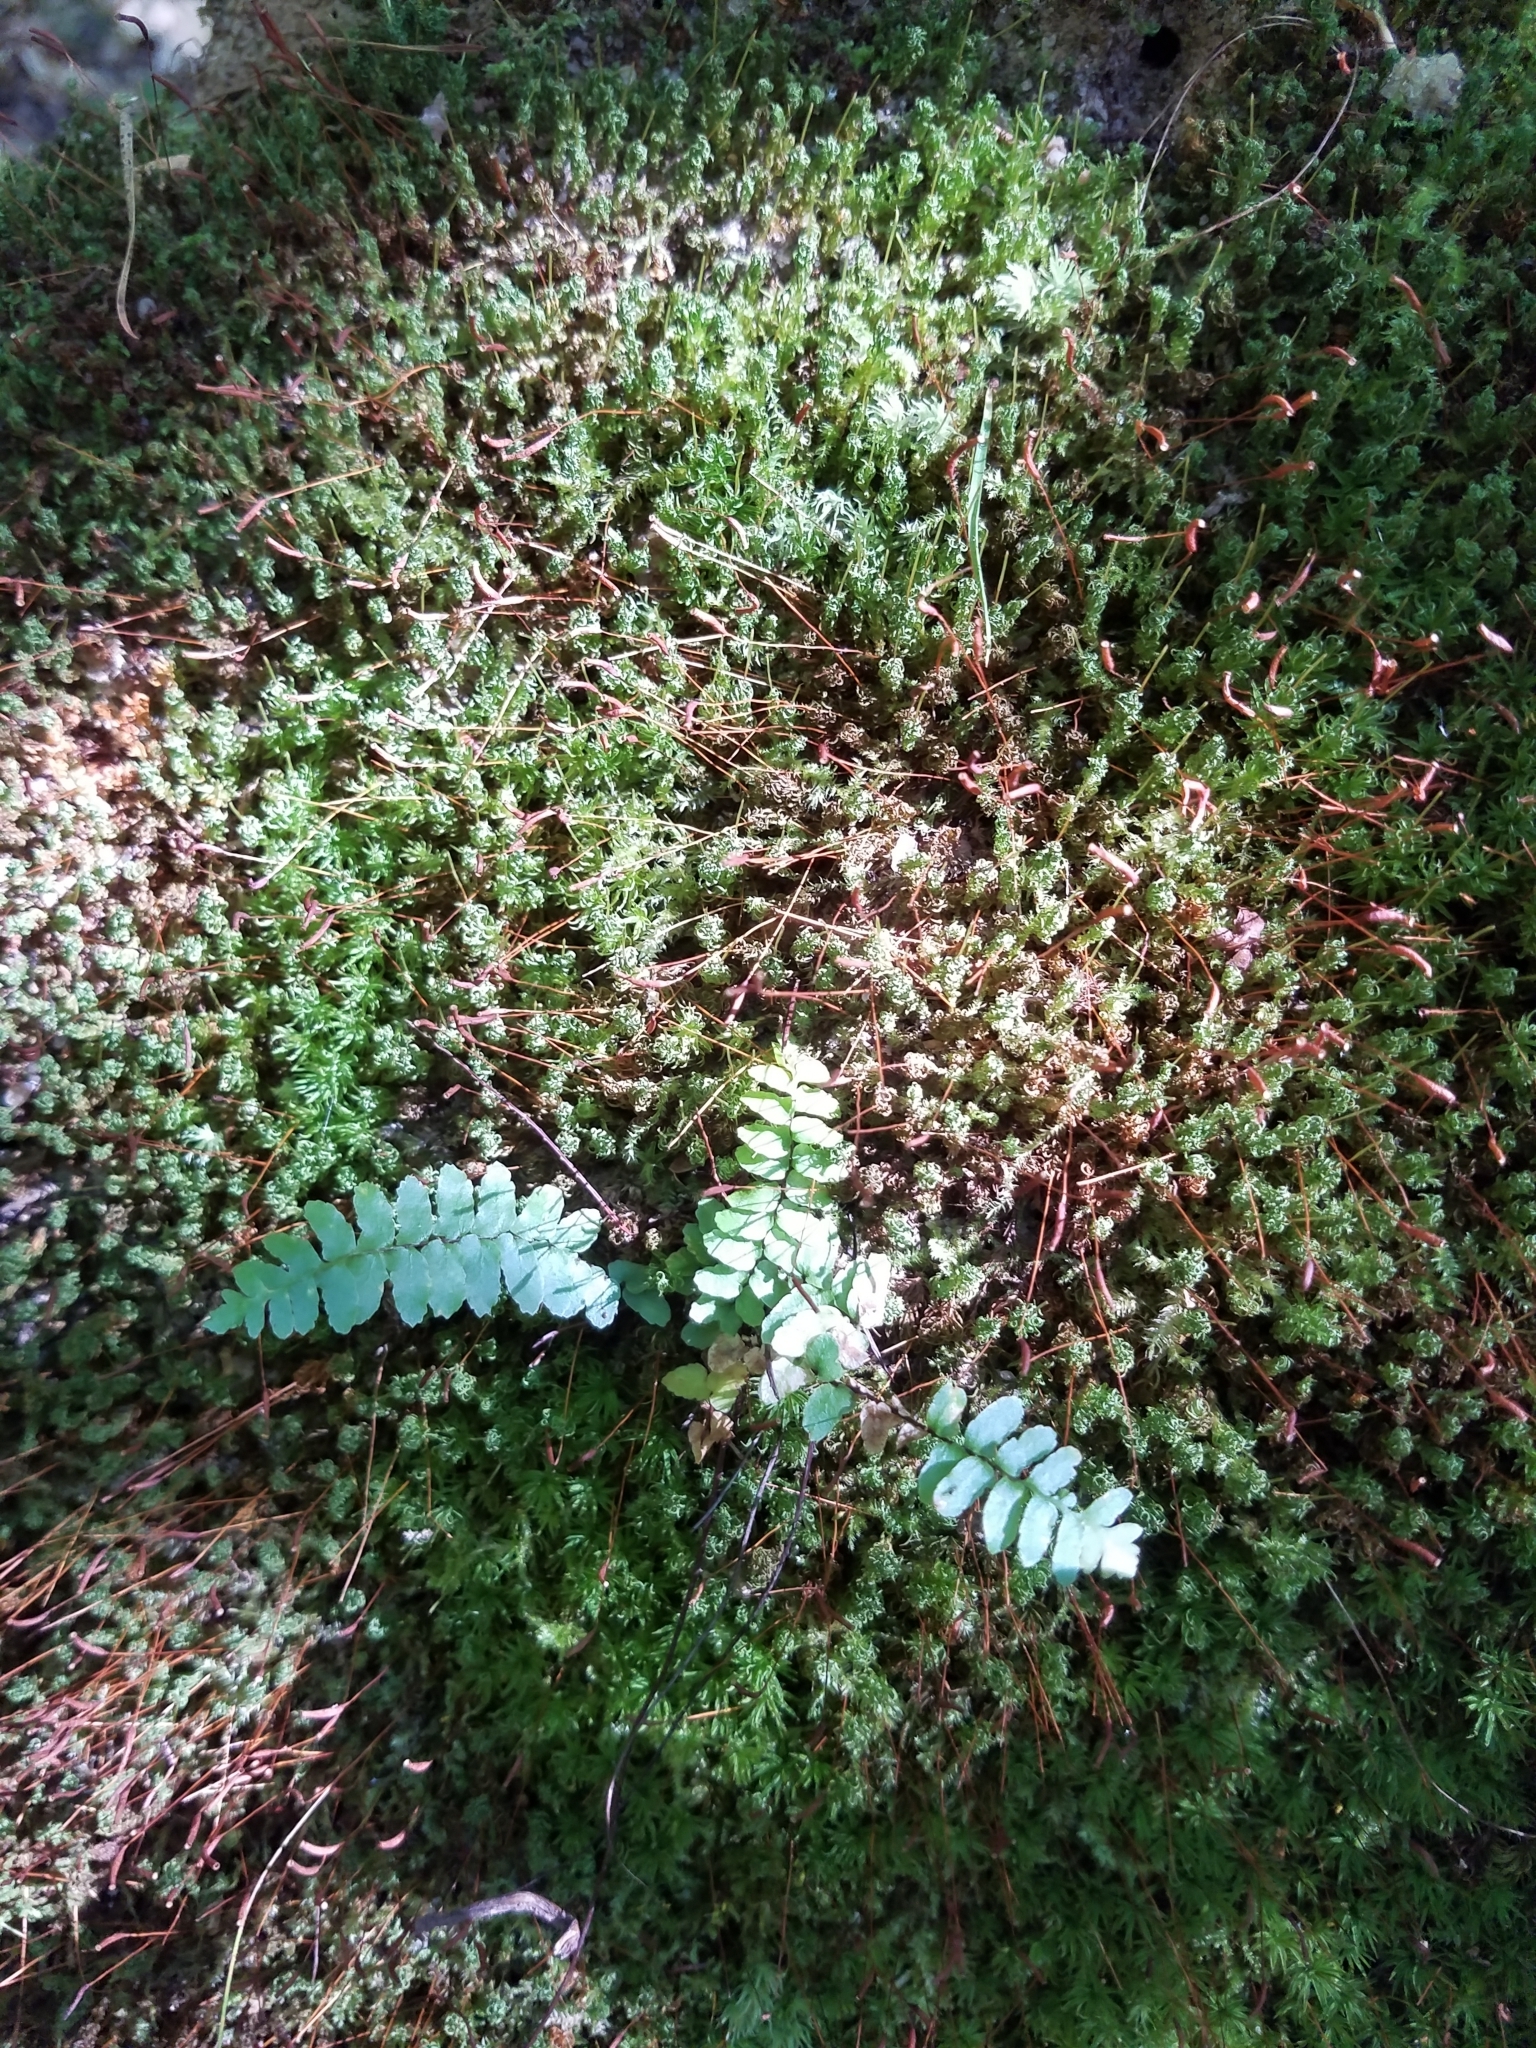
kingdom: Plantae
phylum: Tracheophyta
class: Polypodiopsida
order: Polypodiales
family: Aspleniaceae
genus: Asplenium
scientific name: Asplenium platyneuron
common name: Ebony spleenwort
